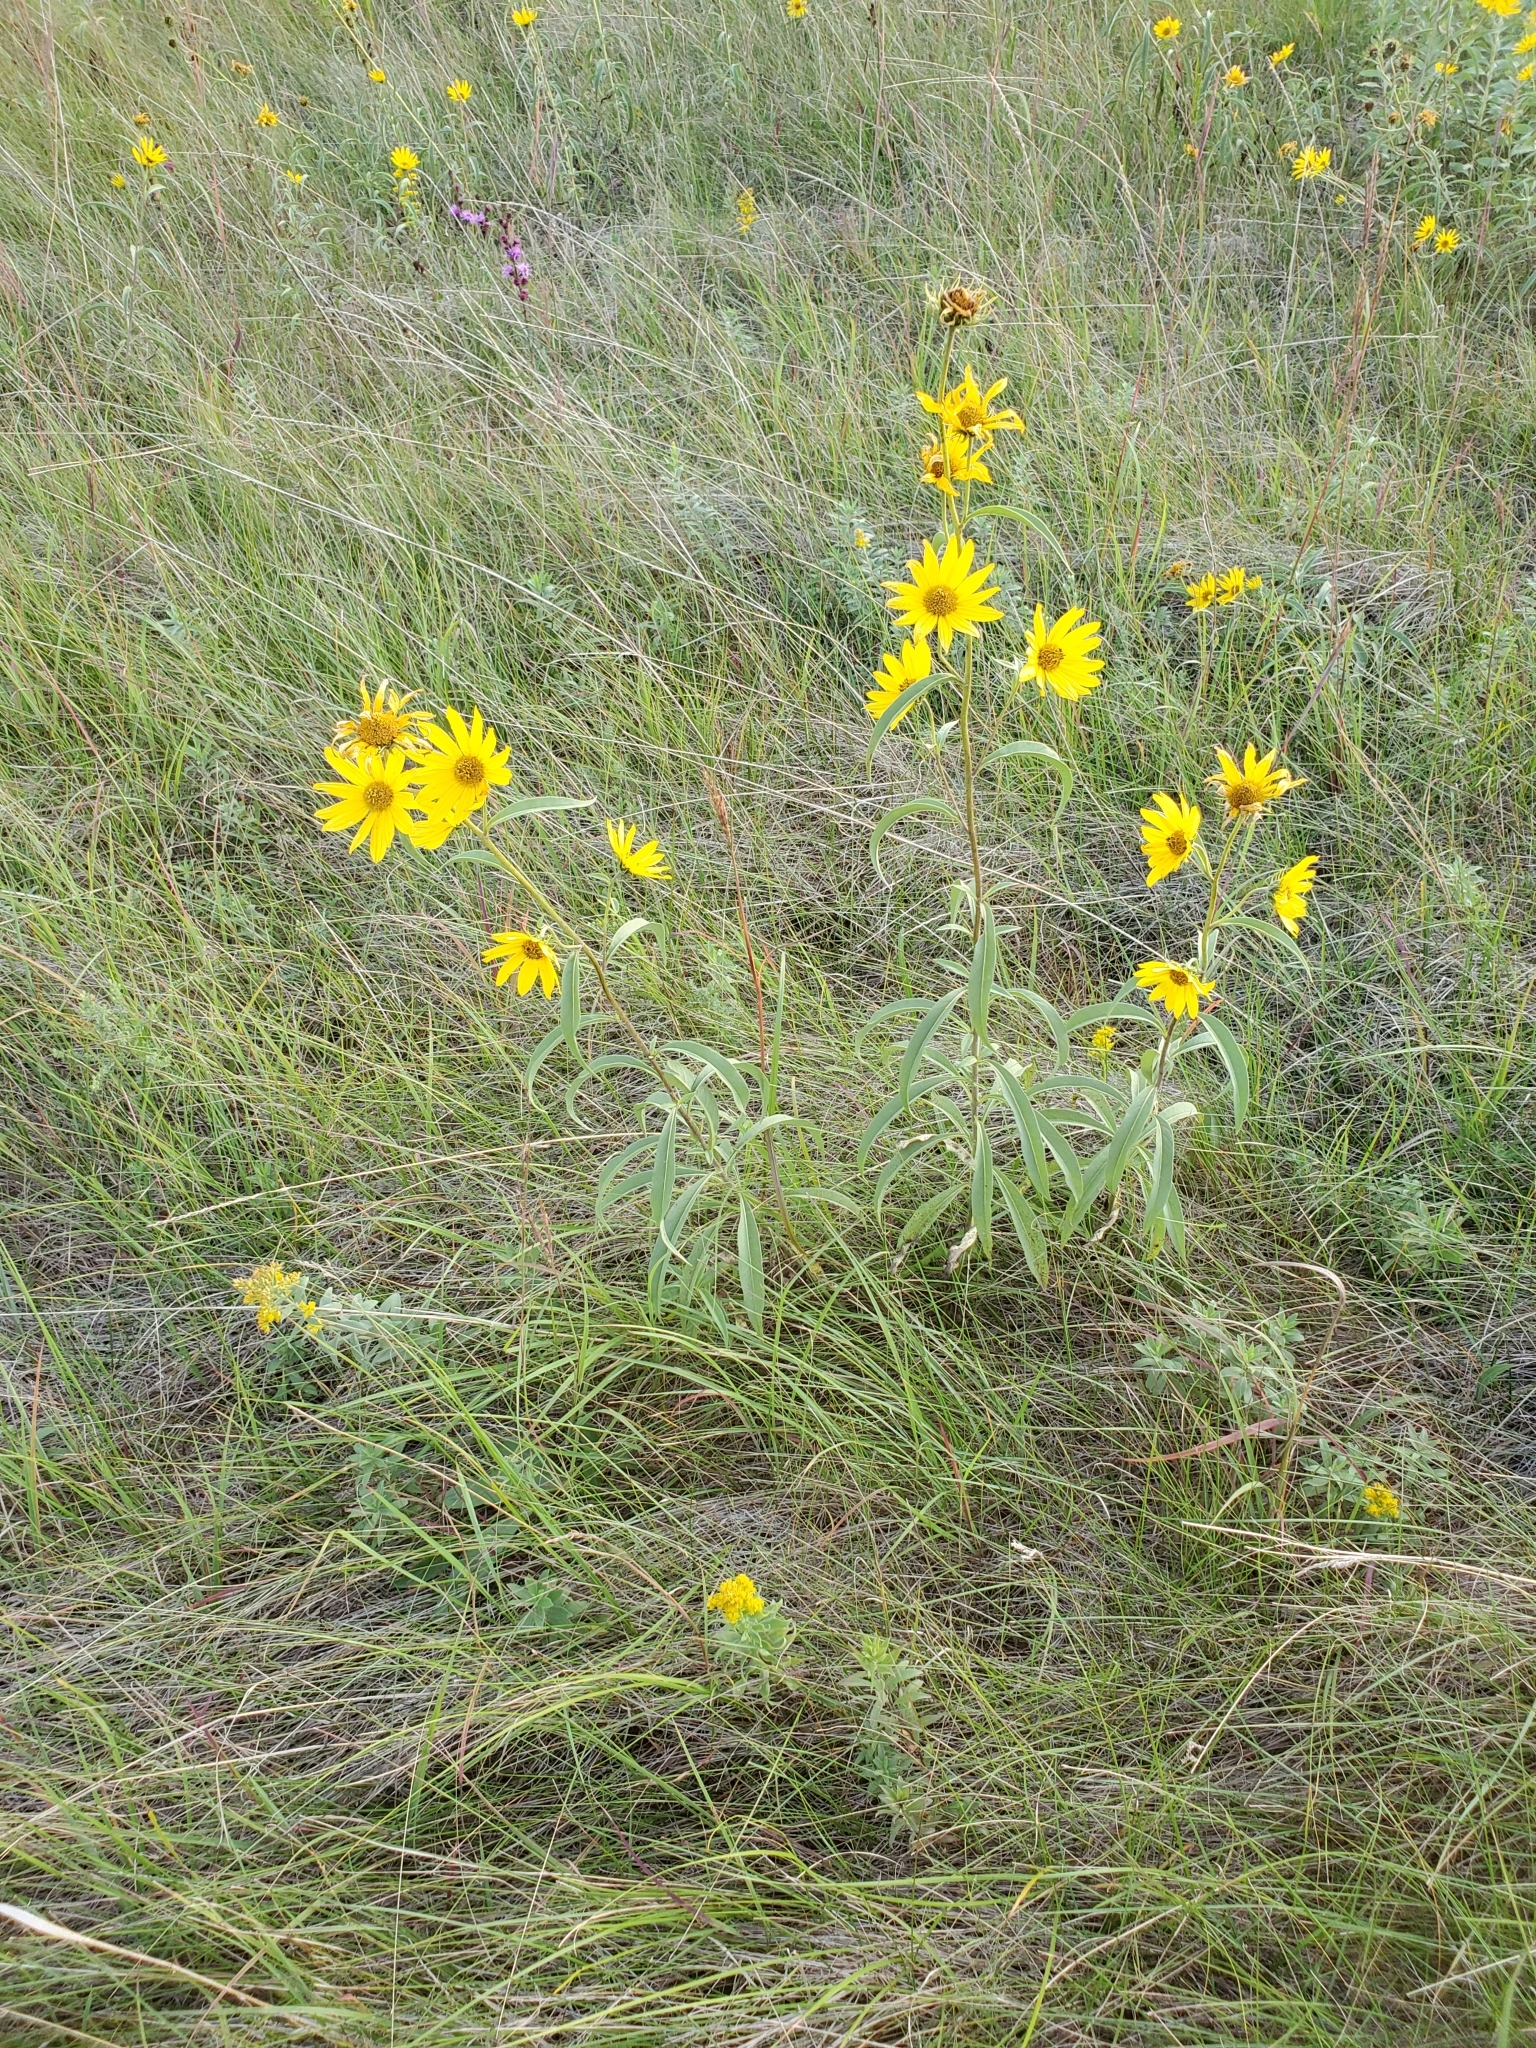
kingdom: Plantae
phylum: Tracheophyta
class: Magnoliopsida
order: Asterales
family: Asteraceae
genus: Helianthus
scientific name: Helianthus maximiliani
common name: Maximilian's sunflower
